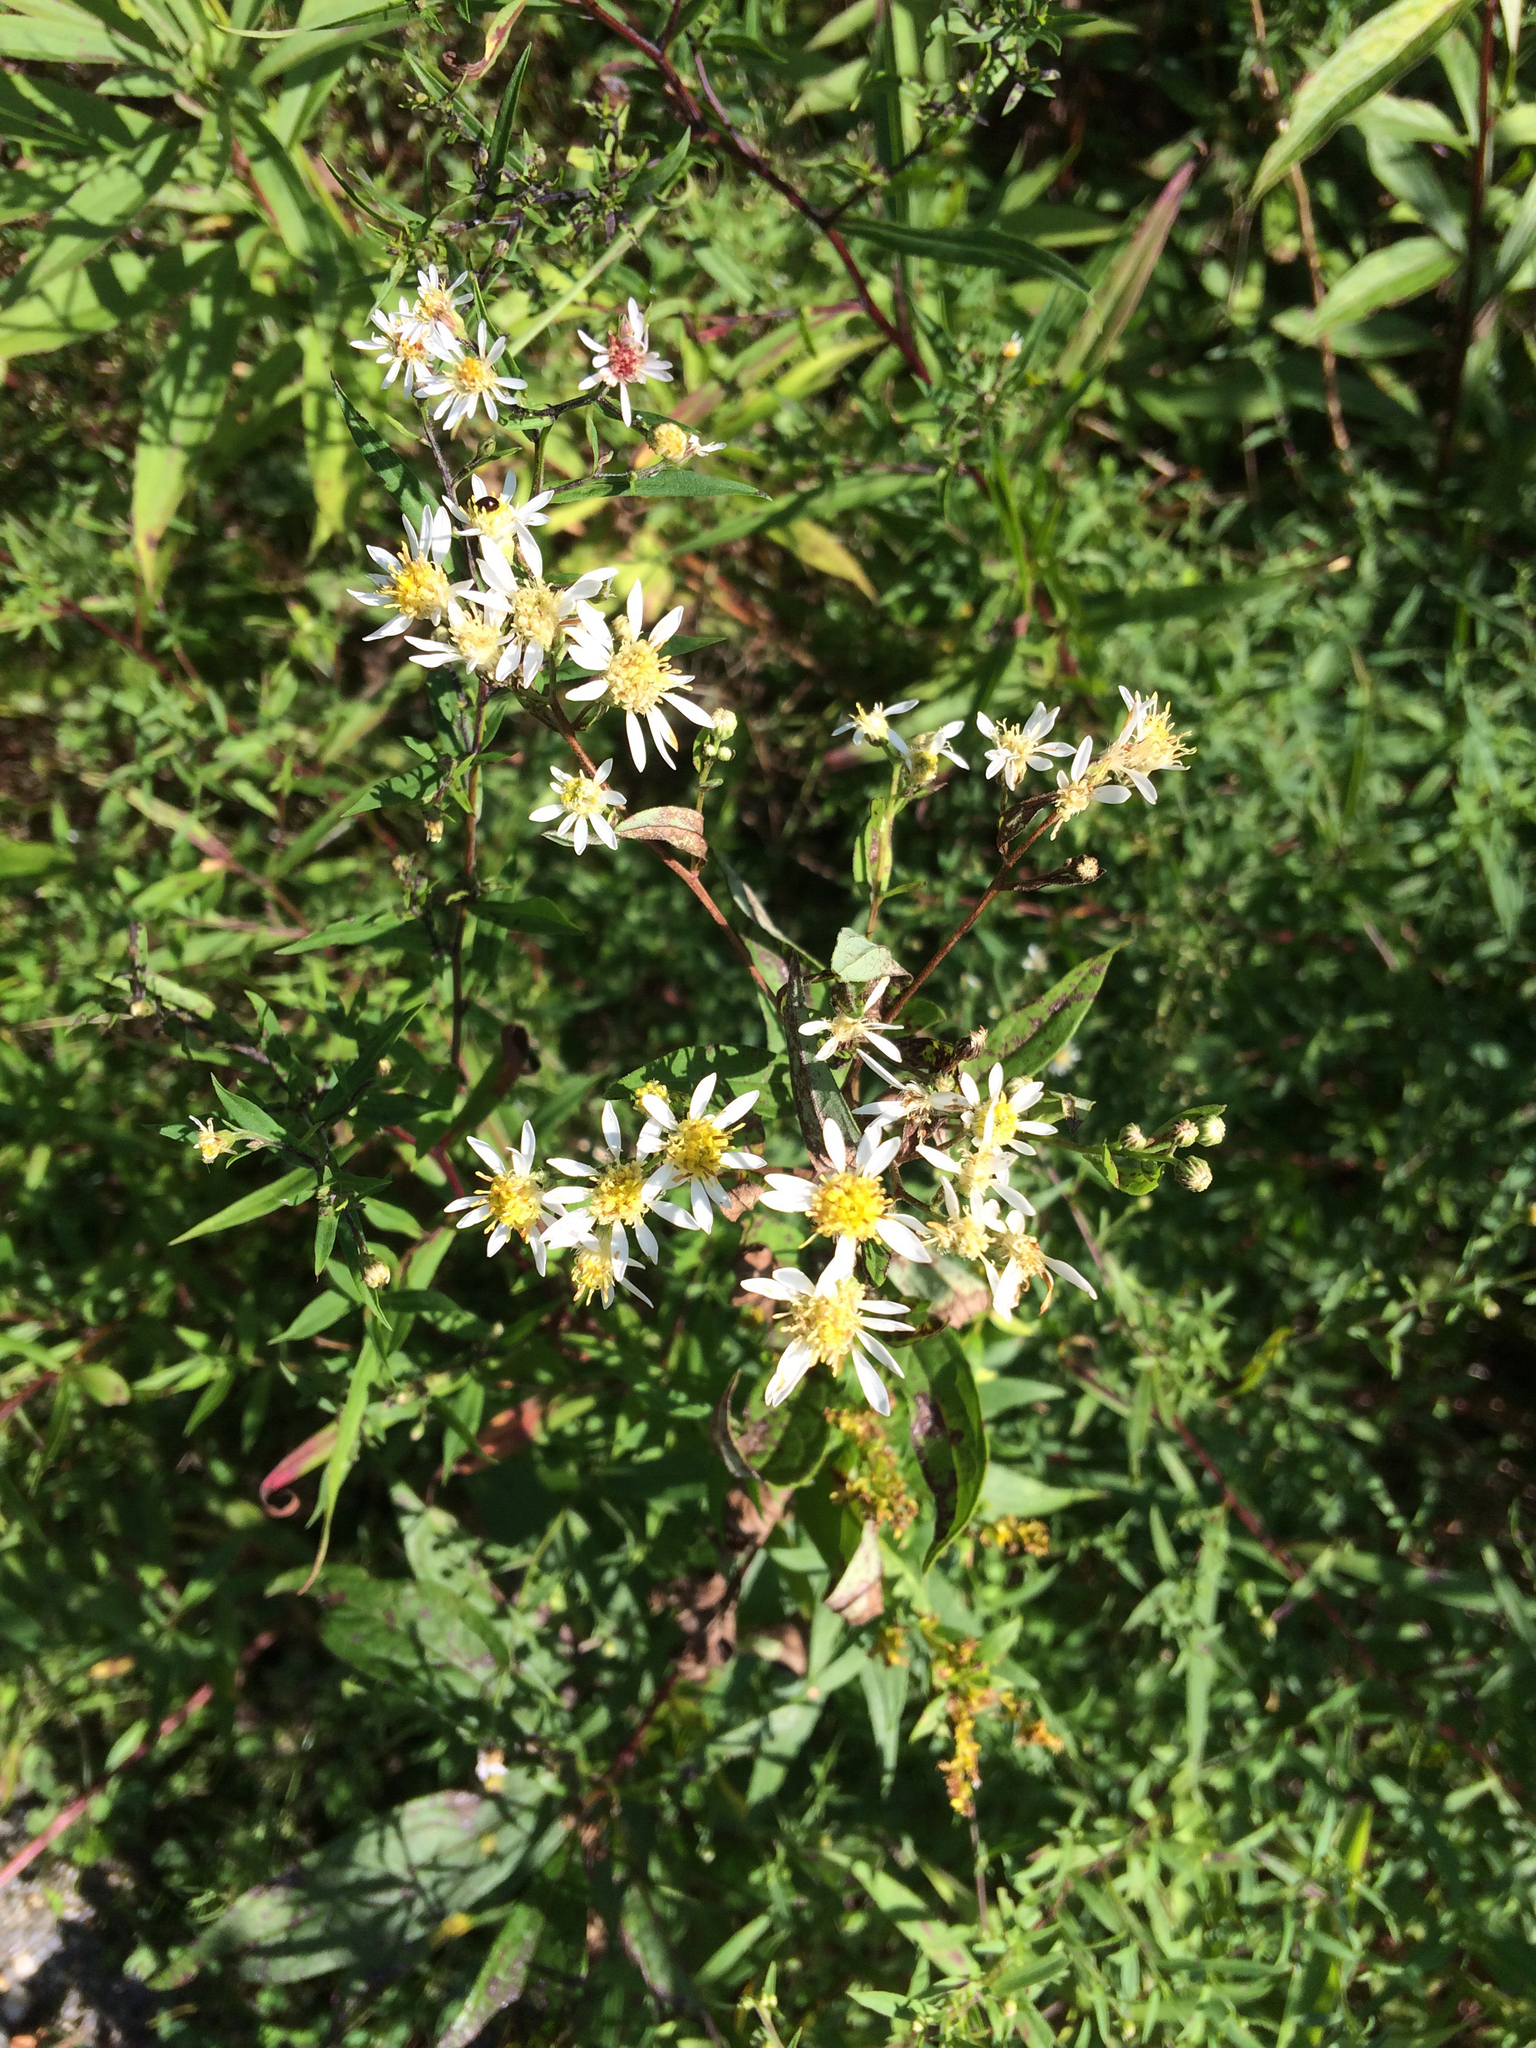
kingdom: Plantae
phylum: Tracheophyta
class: Magnoliopsida
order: Asterales
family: Asteraceae
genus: Symphyotrichum
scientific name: Symphyotrichum lateriflorum
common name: Calico aster
